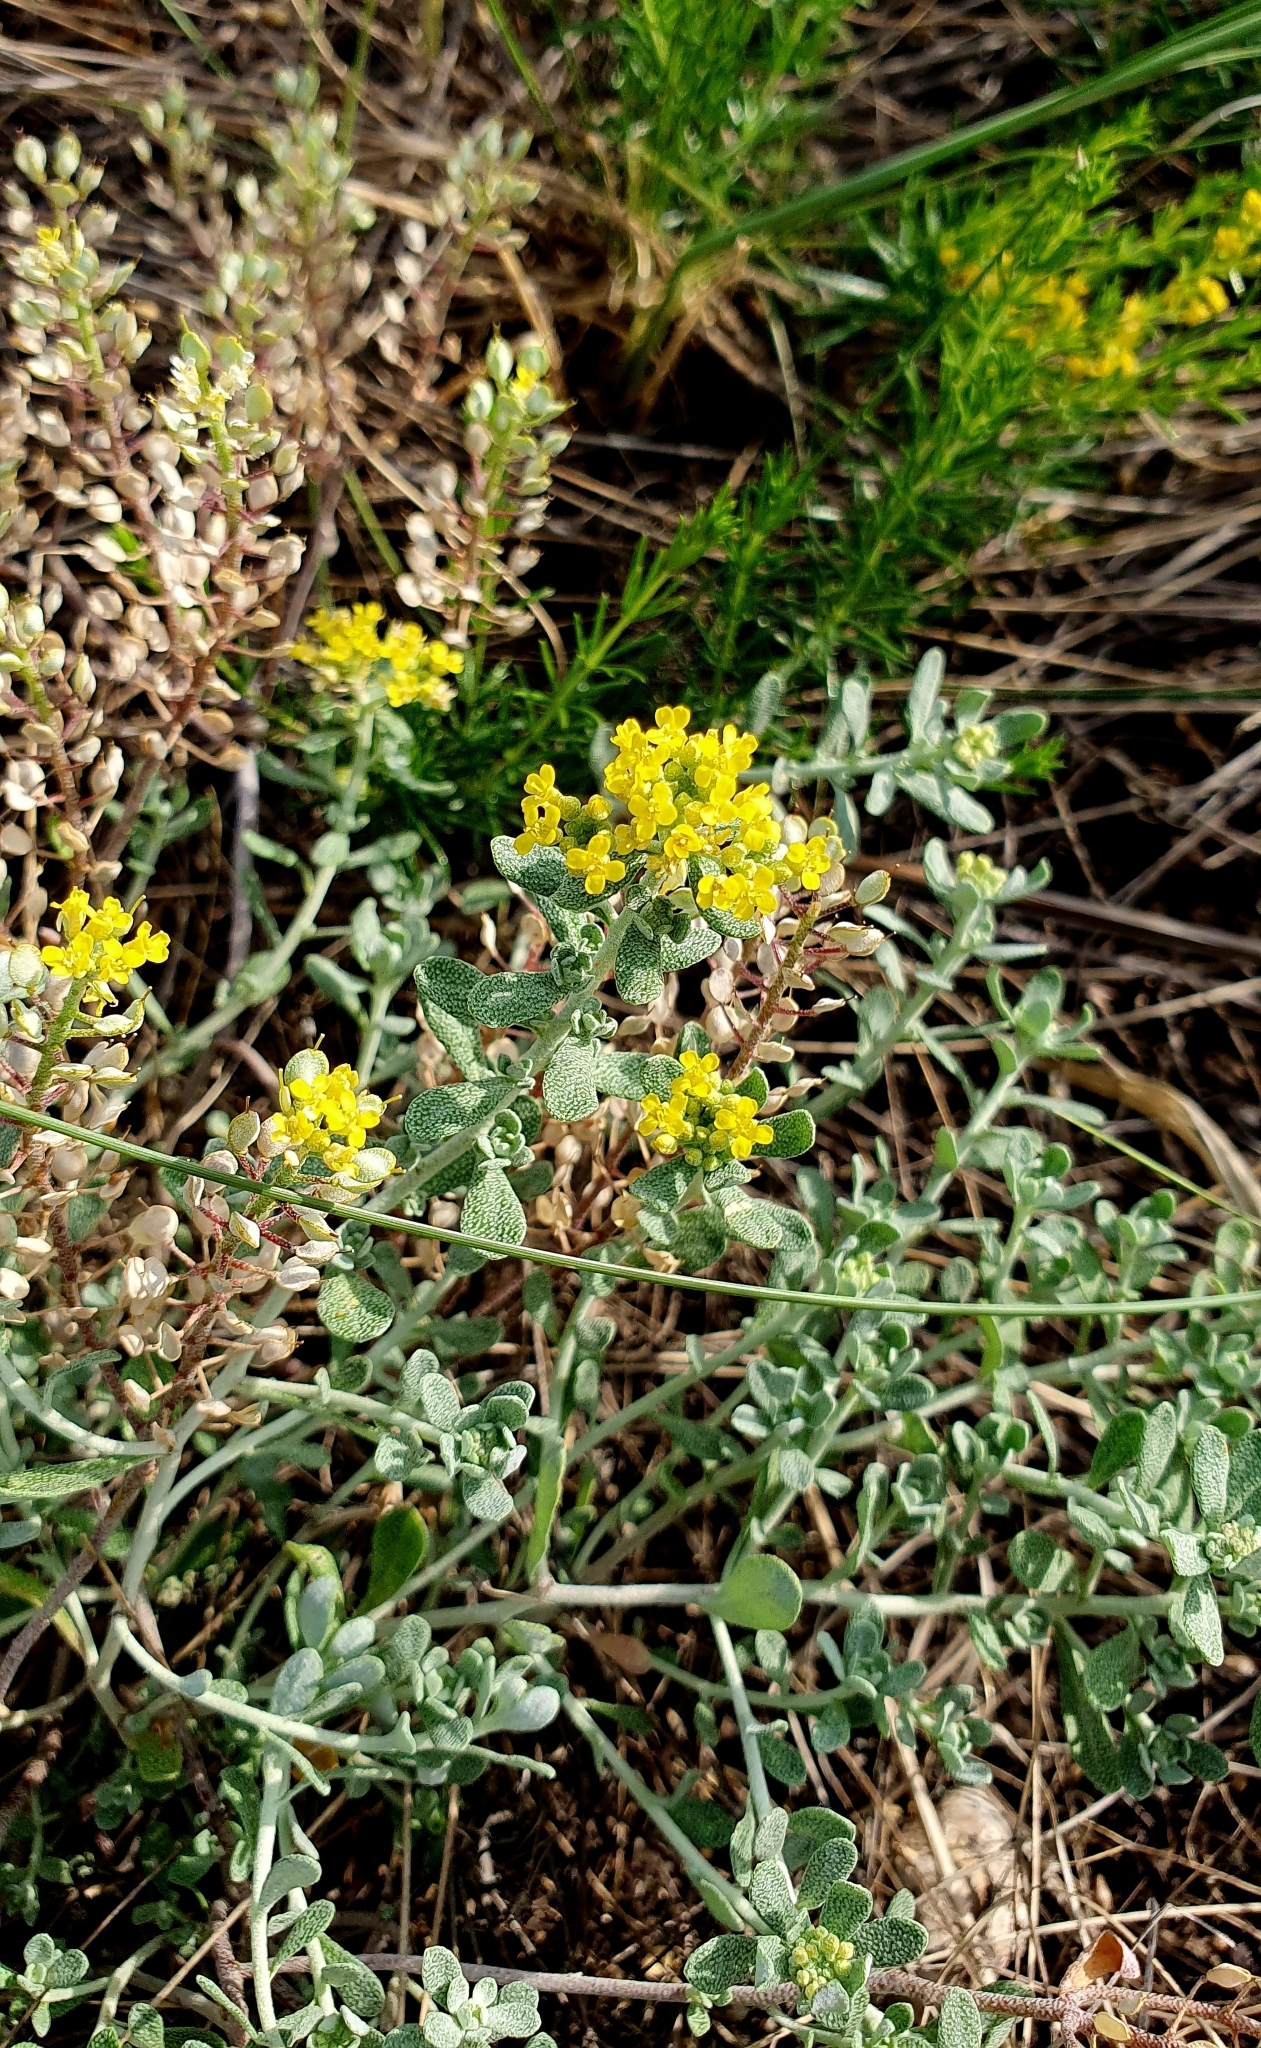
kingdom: Plantae
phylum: Tracheophyta
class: Magnoliopsida
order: Brassicales
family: Brassicaceae
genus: Odontarrhena
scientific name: Odontarrhena tortuosa
